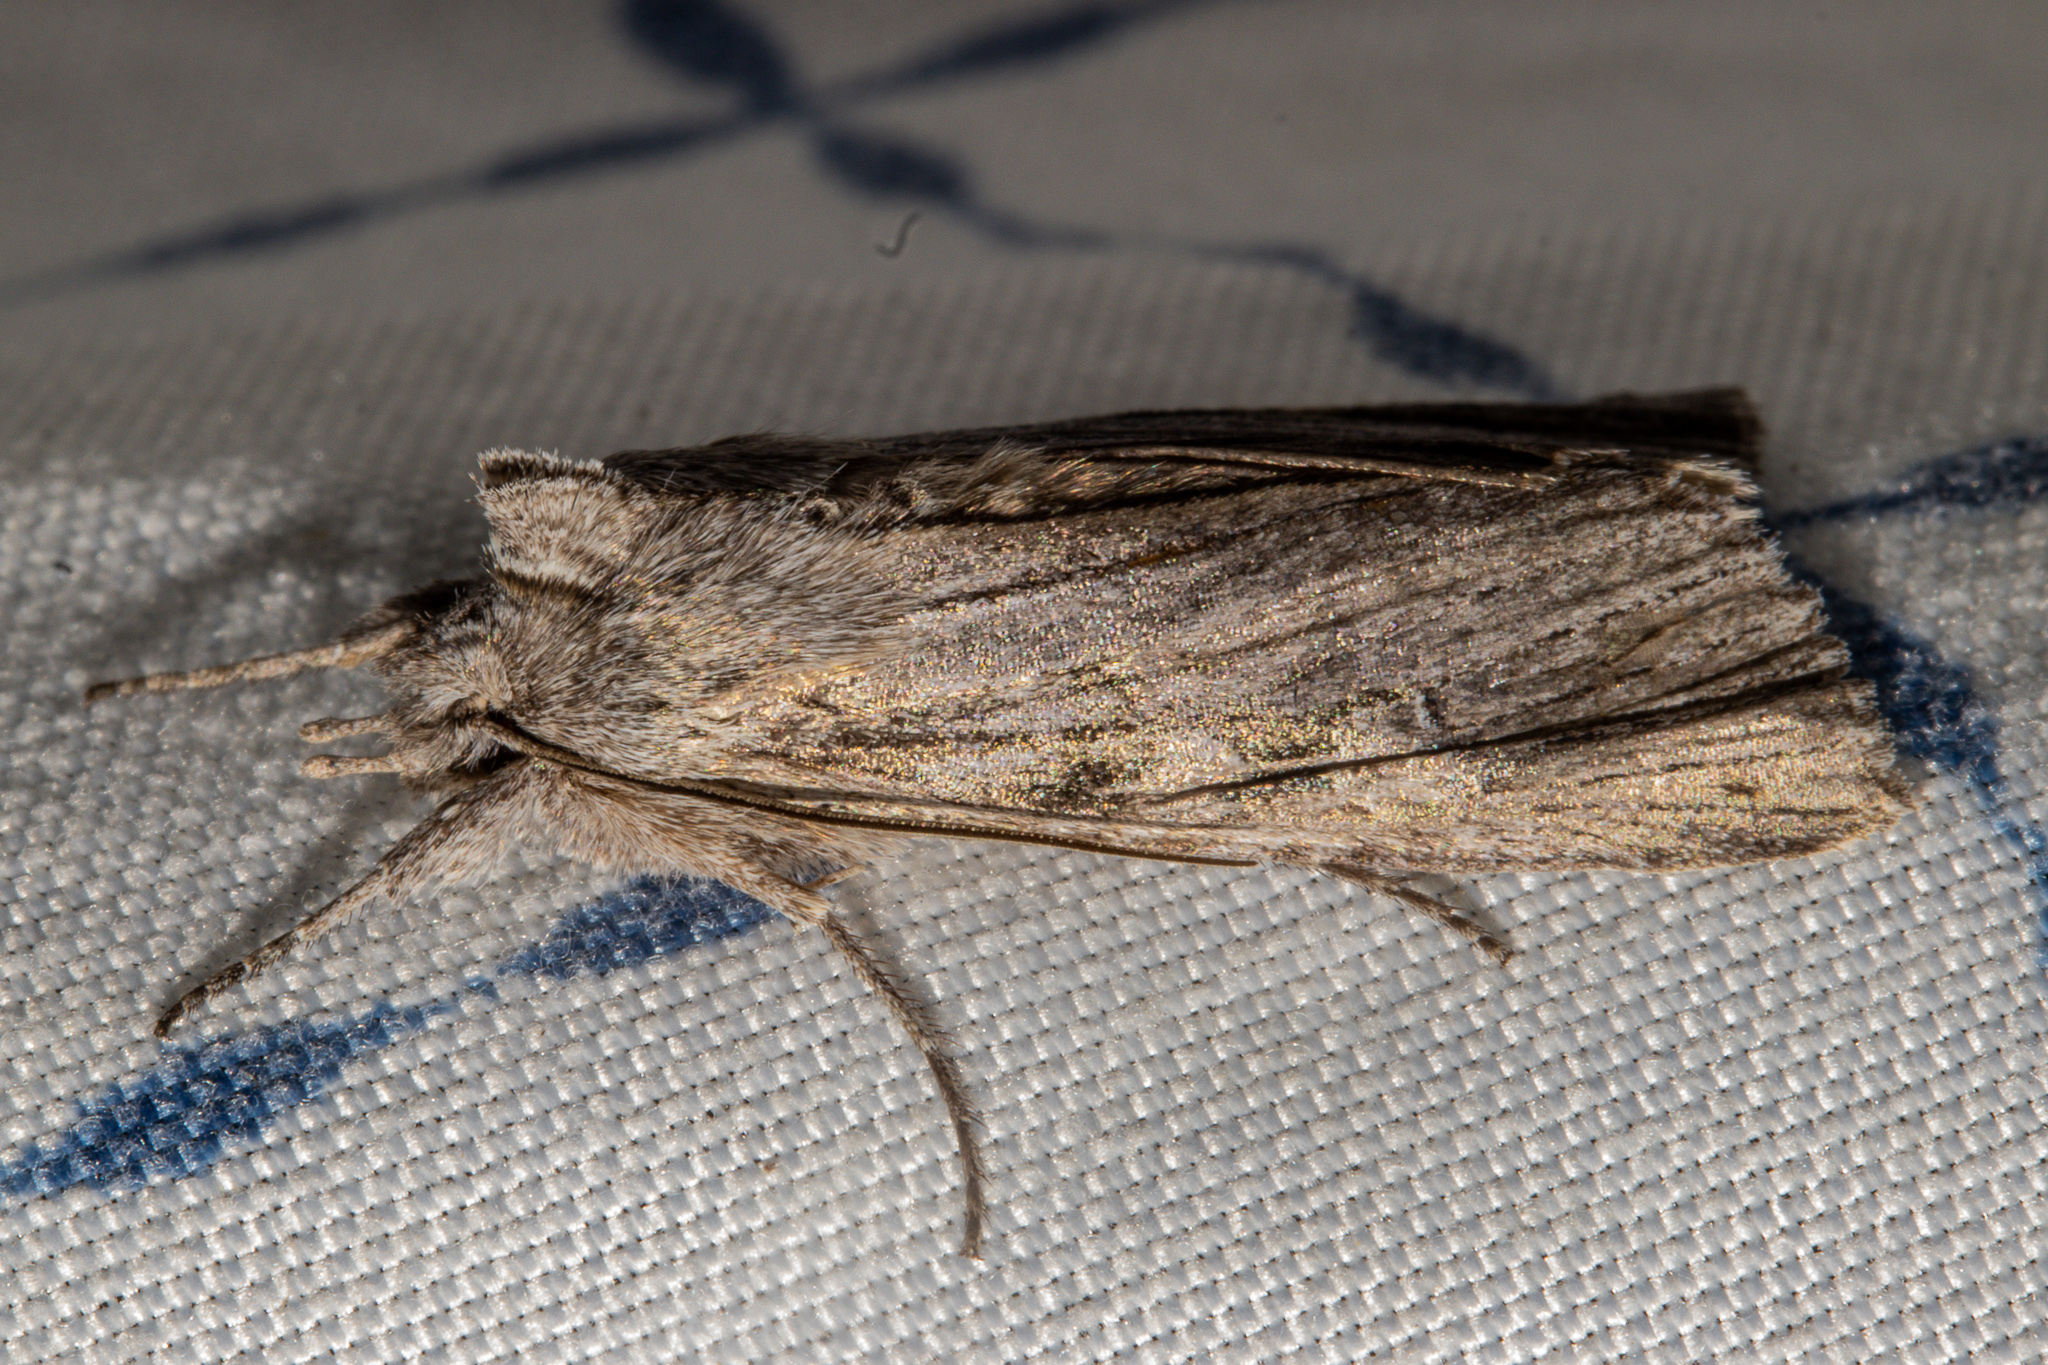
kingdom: Animalia
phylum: Arthropoda
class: Insecta
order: Lepidoptera
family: Noctuidae
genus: Physetica
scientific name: Physetica phricias
